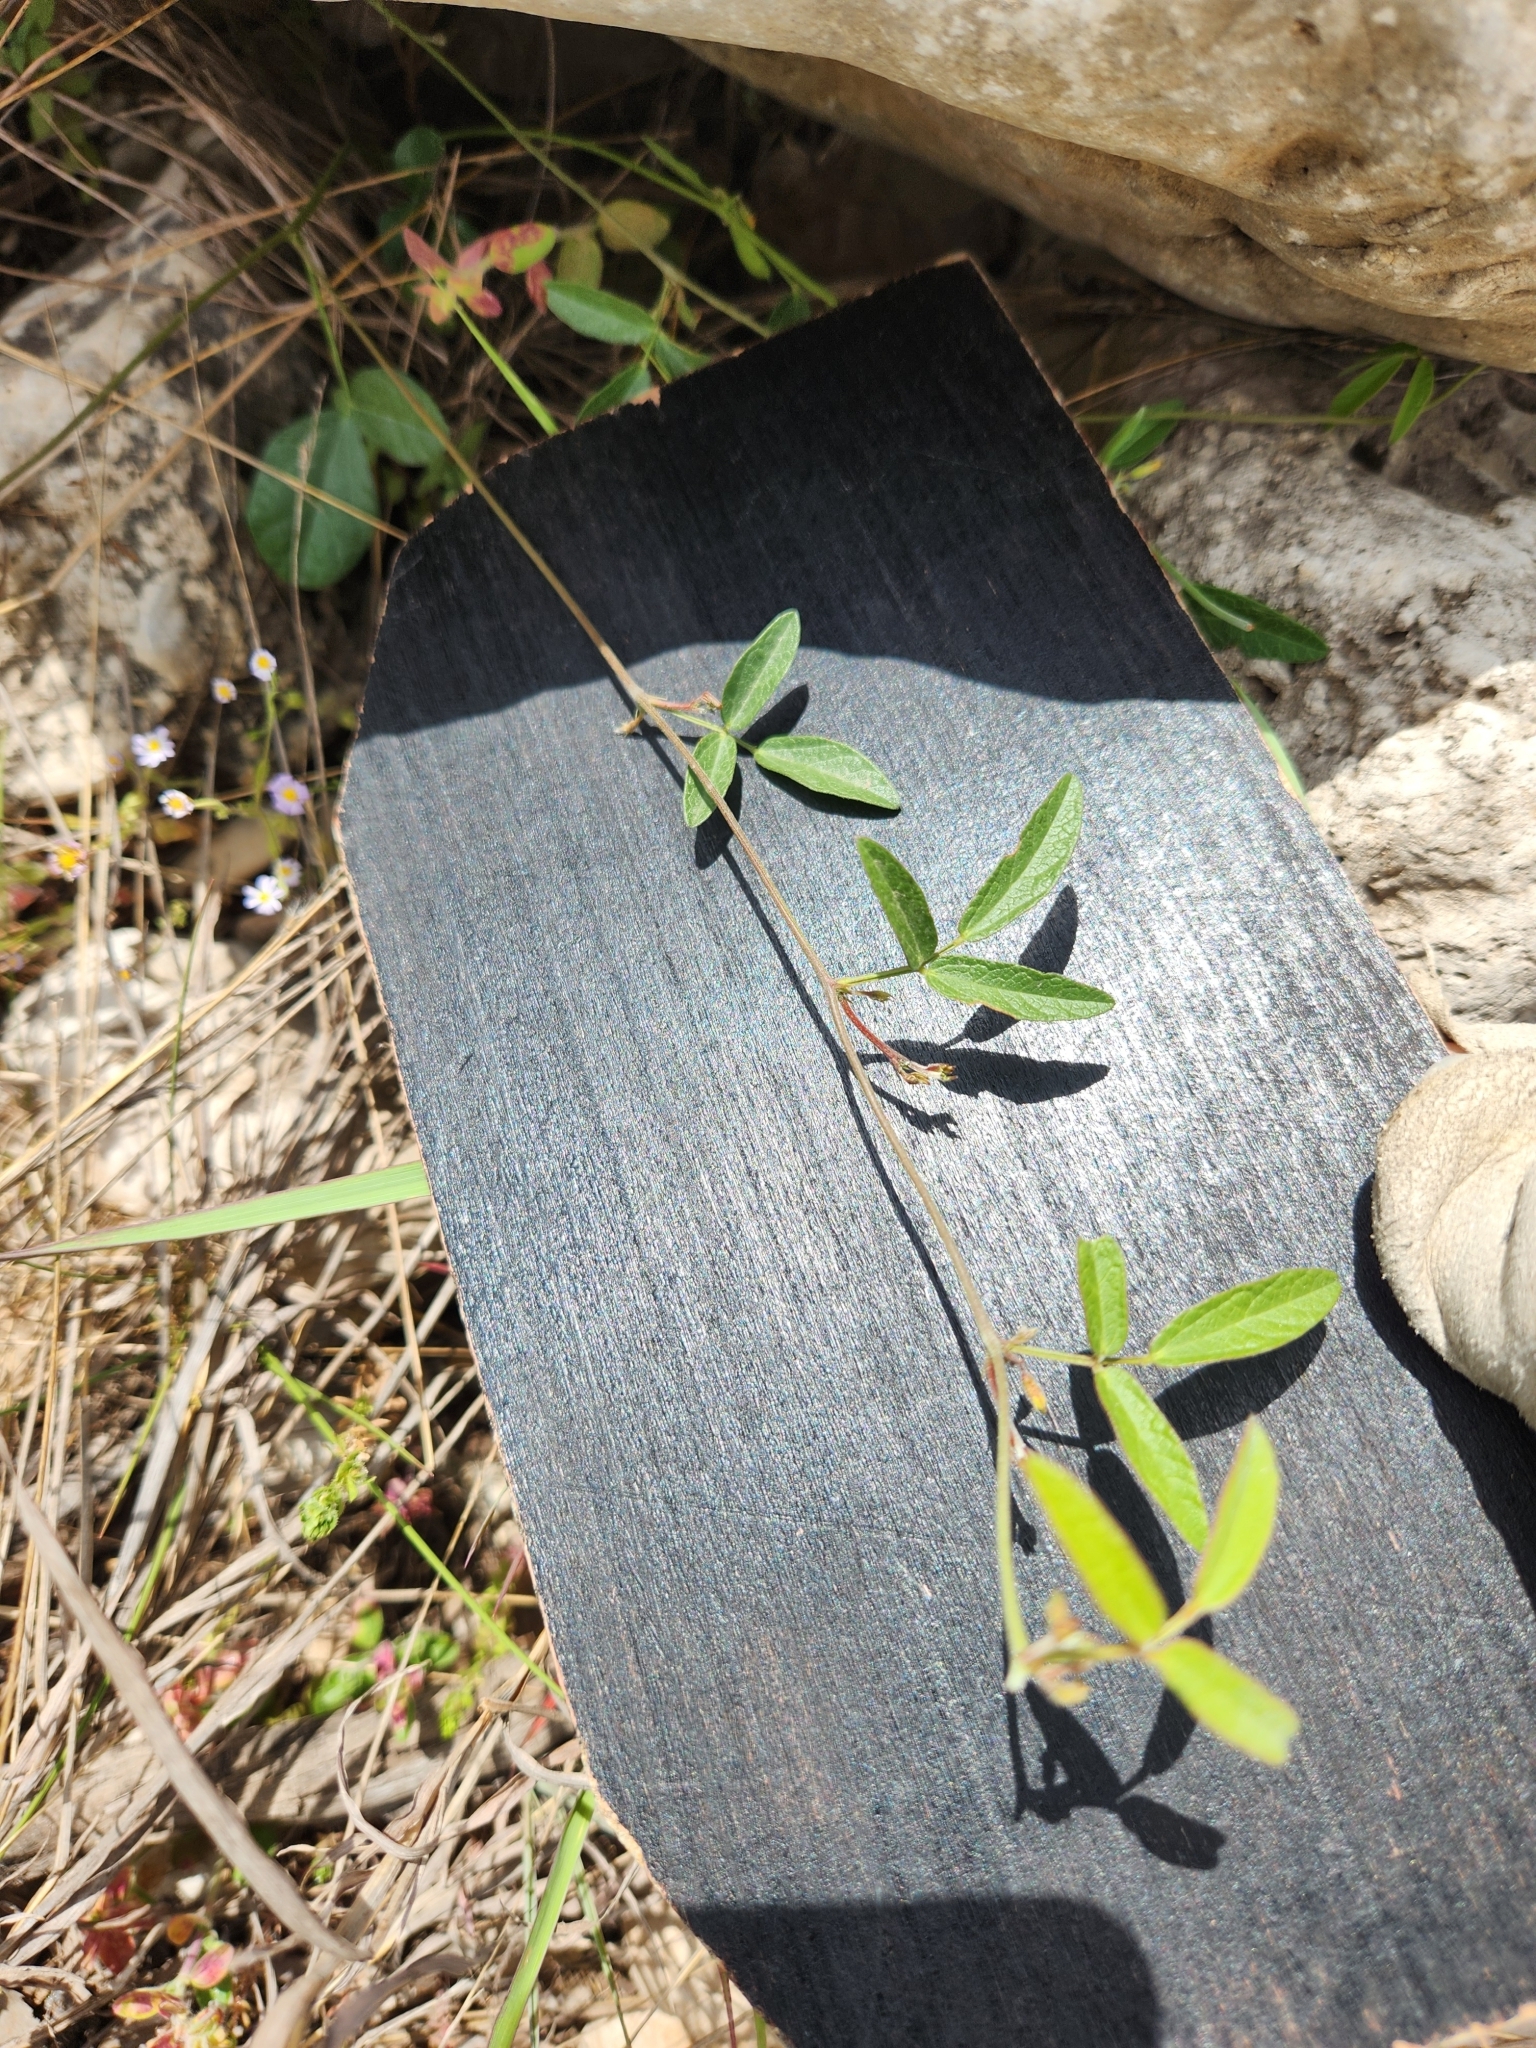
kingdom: Plantae
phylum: Tracheophyta
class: Magnoliopsida
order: Fabales
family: Fabaceae
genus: Rhynchosia
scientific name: Rhynchosia senna
